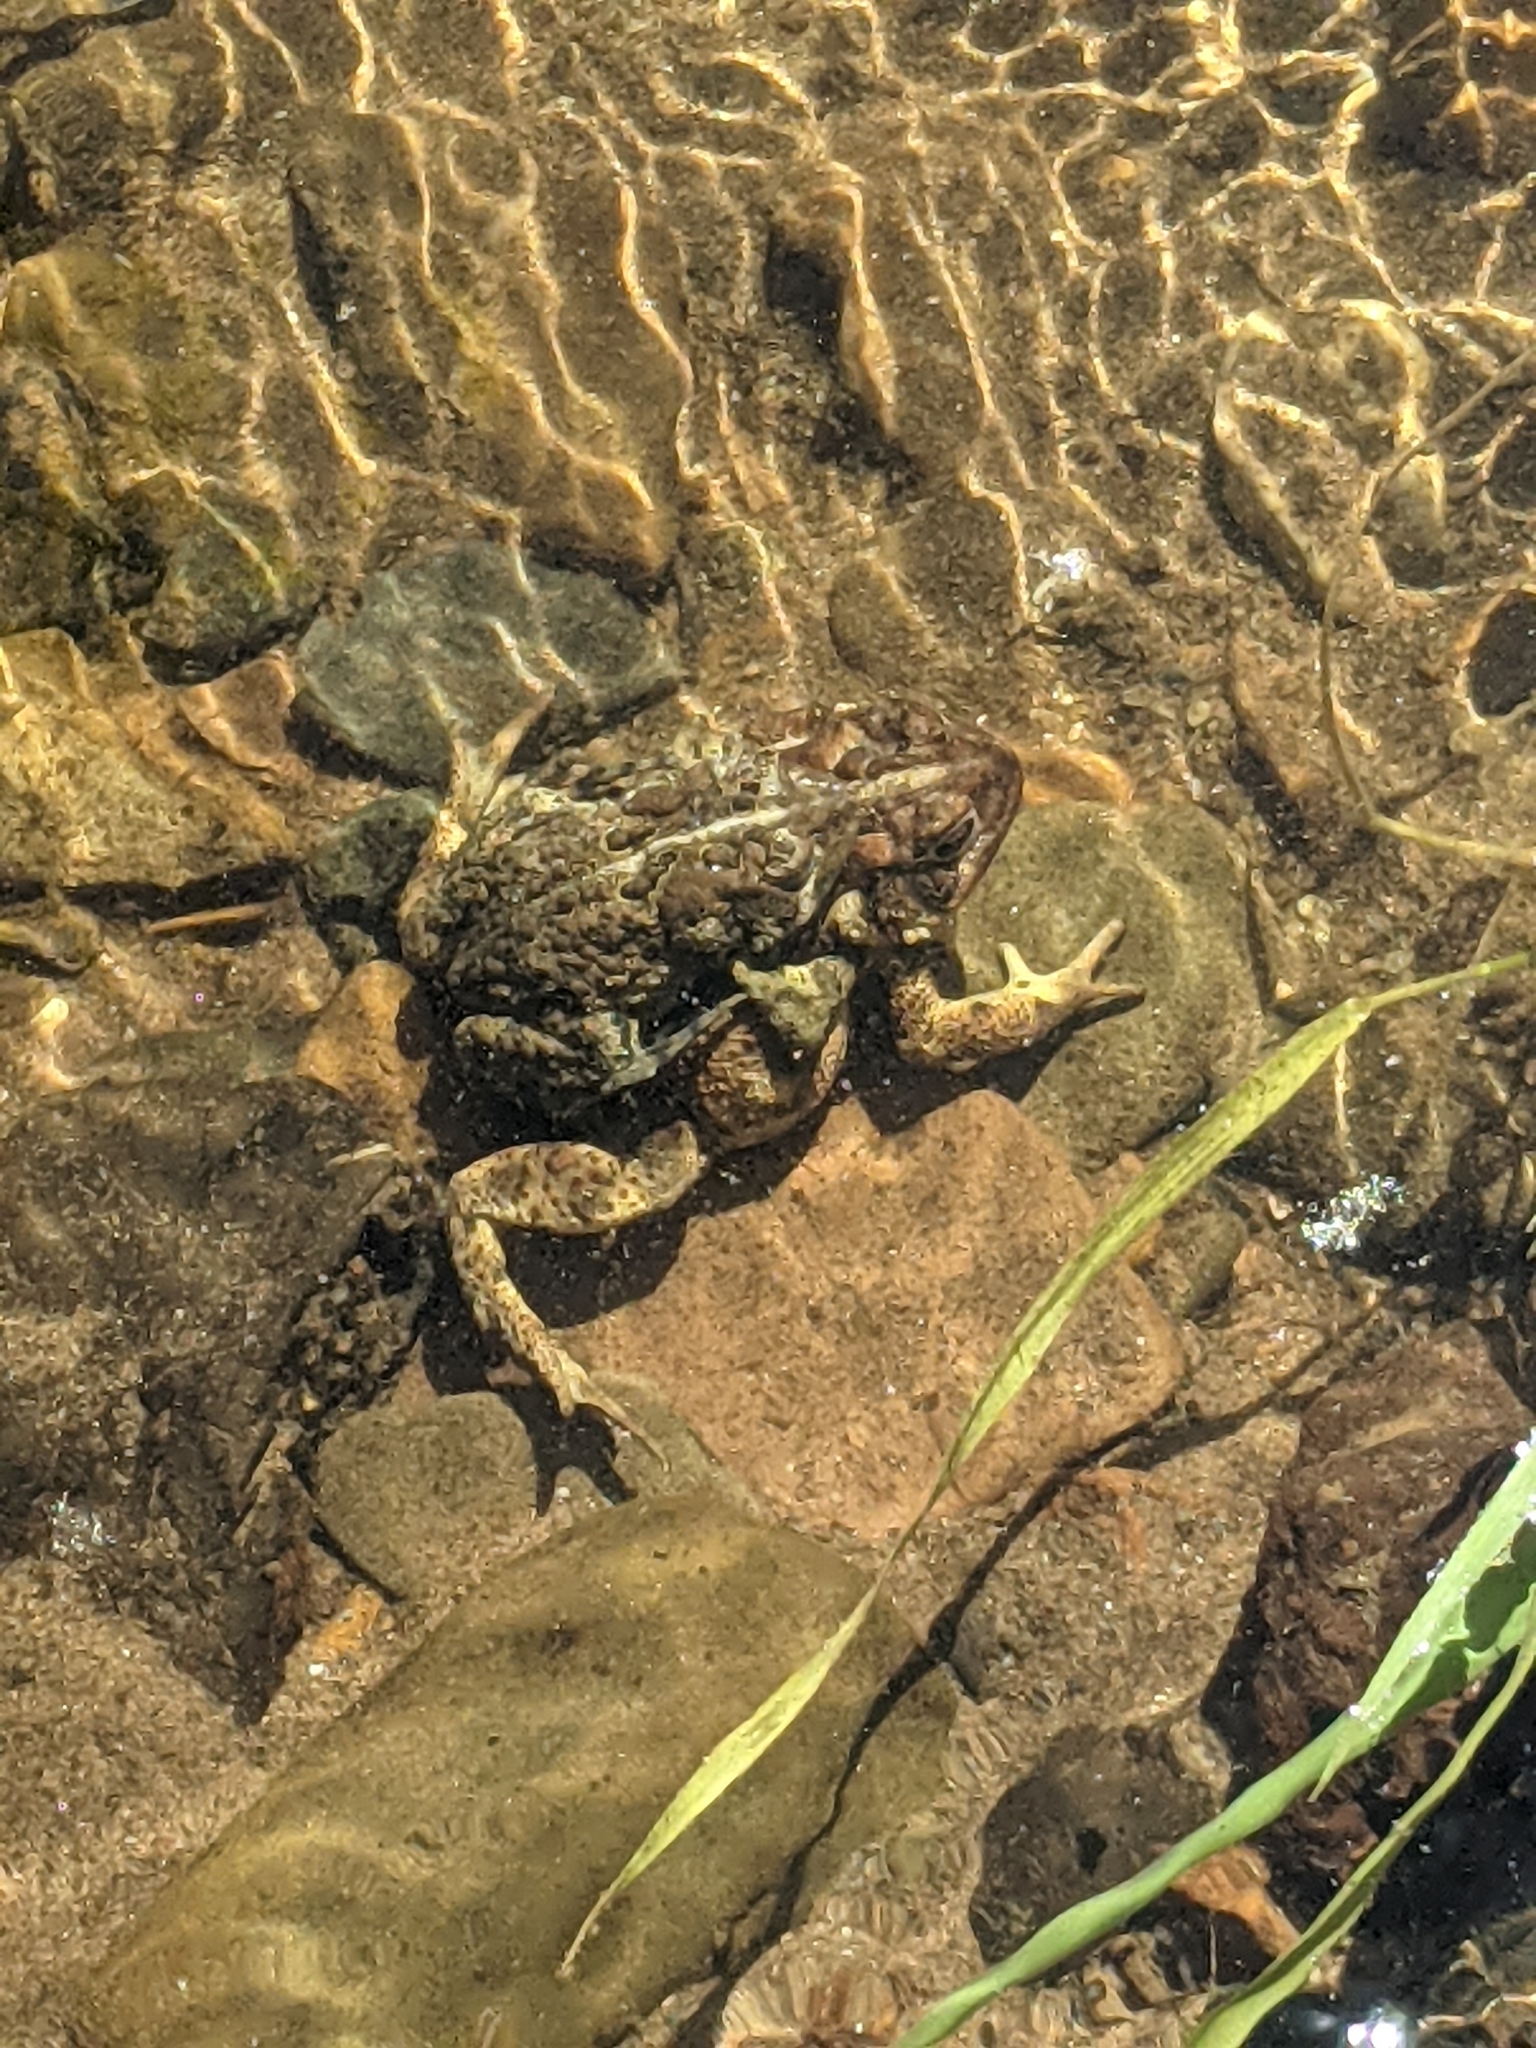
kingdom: Animalia
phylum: Chordata
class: Amphibia
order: Anura
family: Bufonidae
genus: Anaxyrus
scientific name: Anaxyrus americanus
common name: American toad
